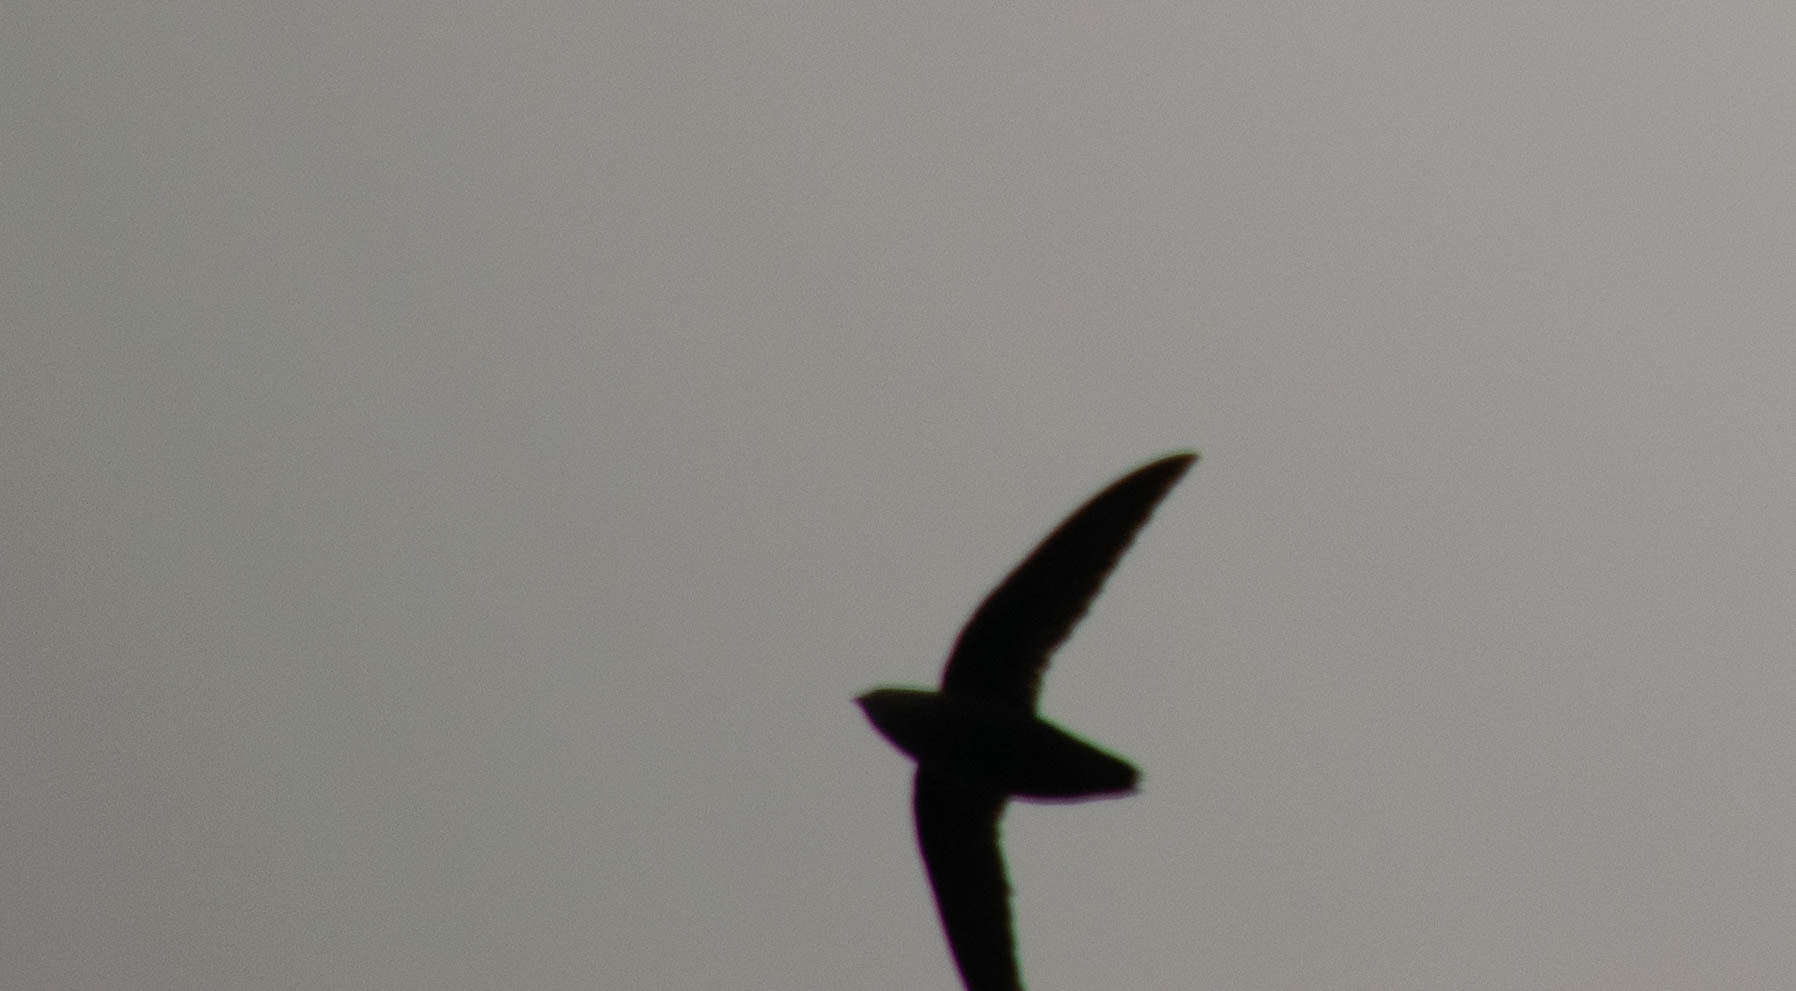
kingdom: Animalia
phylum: Chordata
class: Aves
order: Apodiformes
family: Apodidae
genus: Chaetura
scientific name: Chaetura pelagica
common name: Chimney swift
